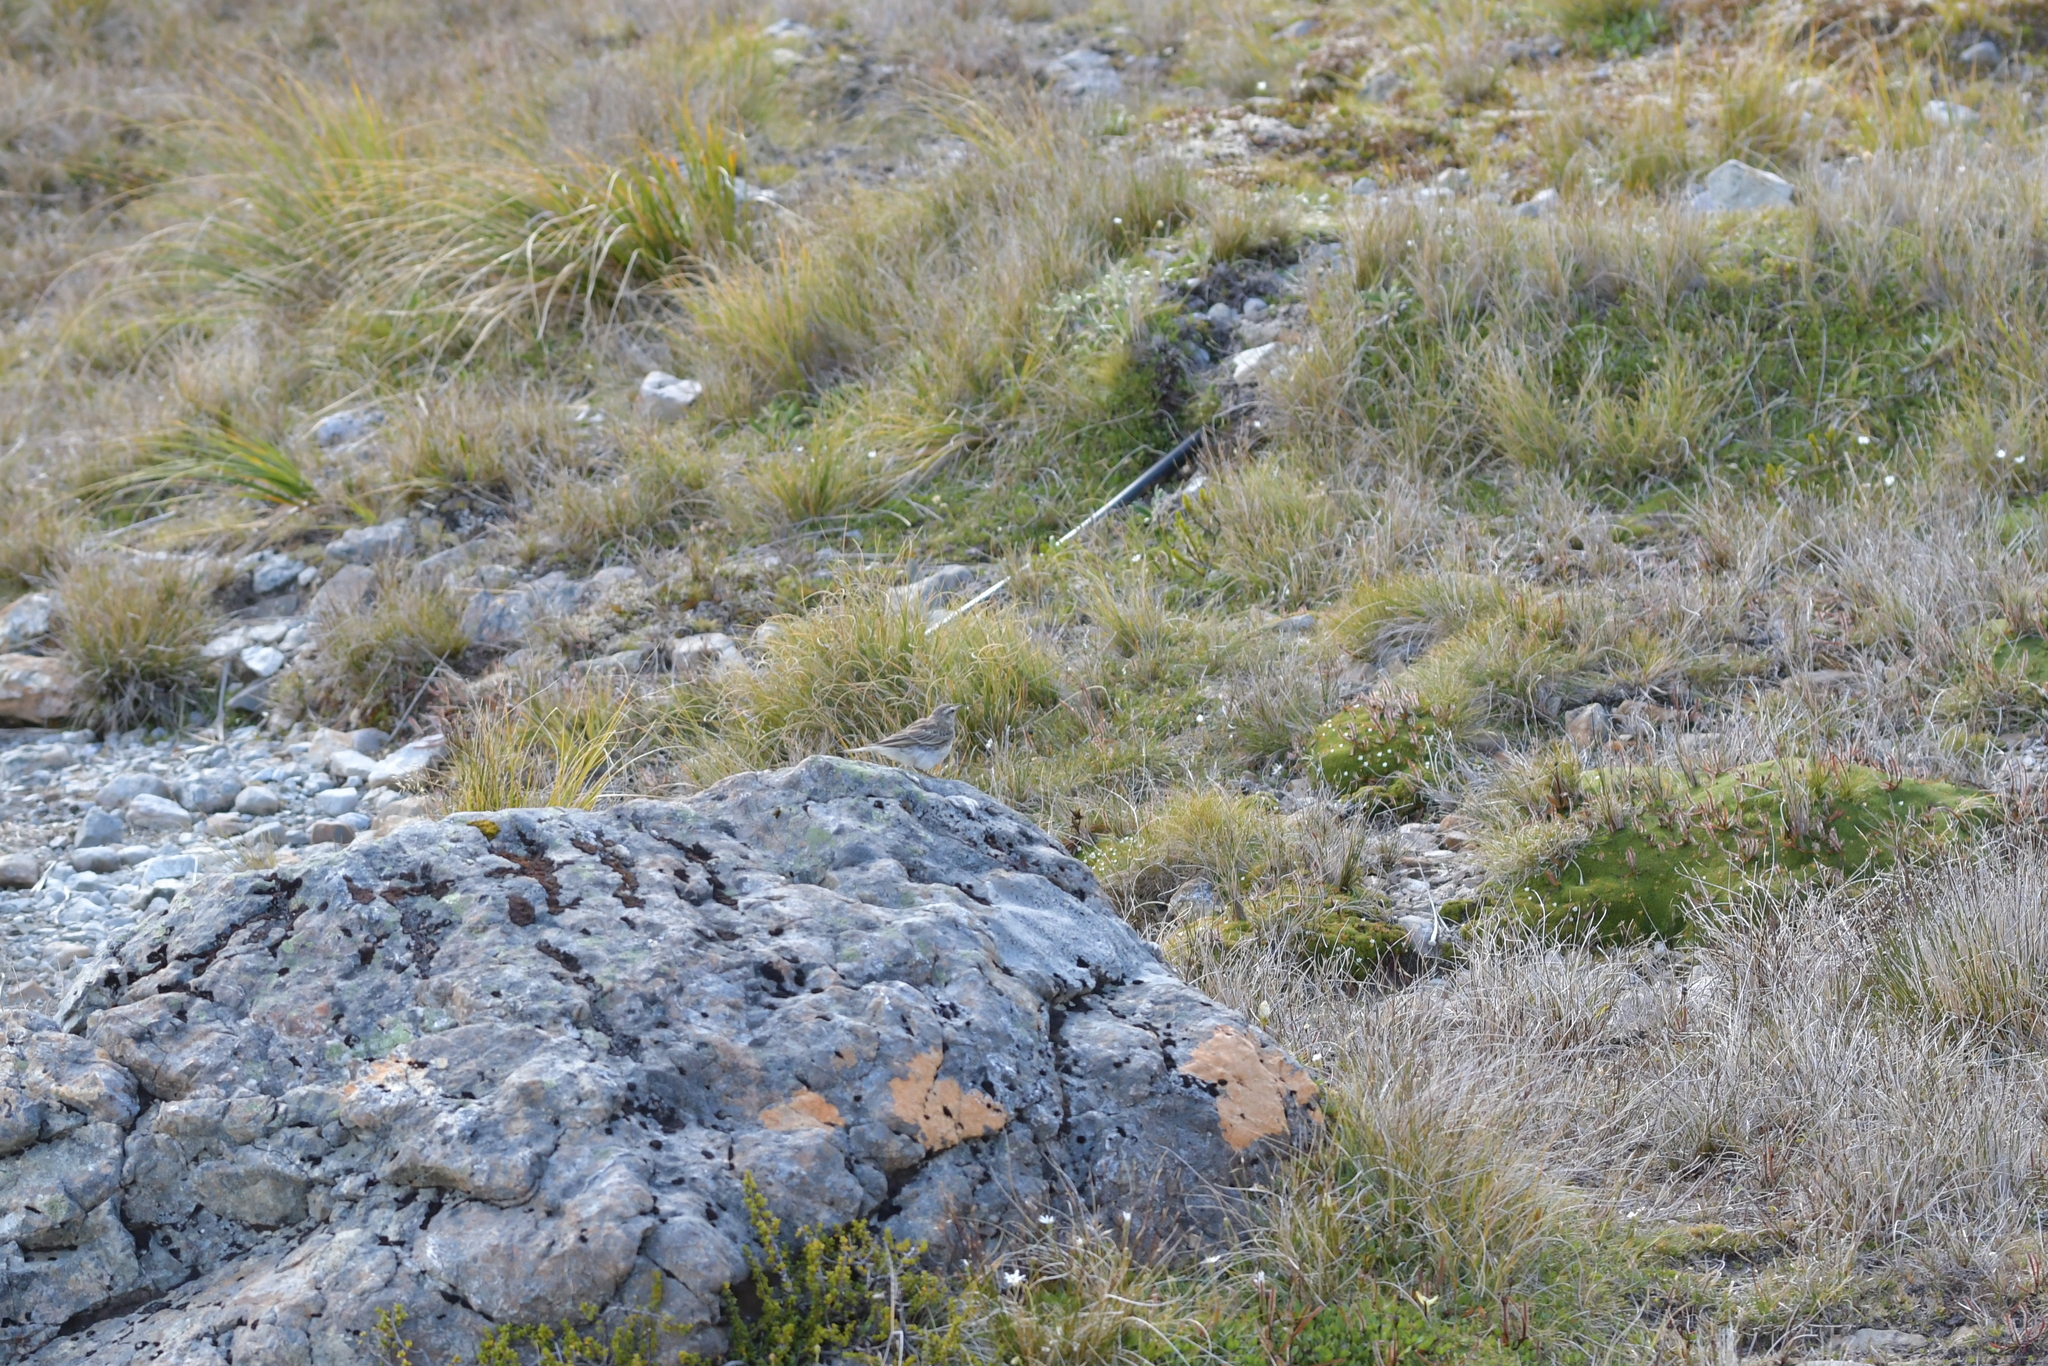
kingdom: Animalia
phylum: Chordata
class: Aves
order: Passeriformes
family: Motacillidae
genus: Anthus
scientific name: Anthus novaeseelandiae
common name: New zealand pipit
